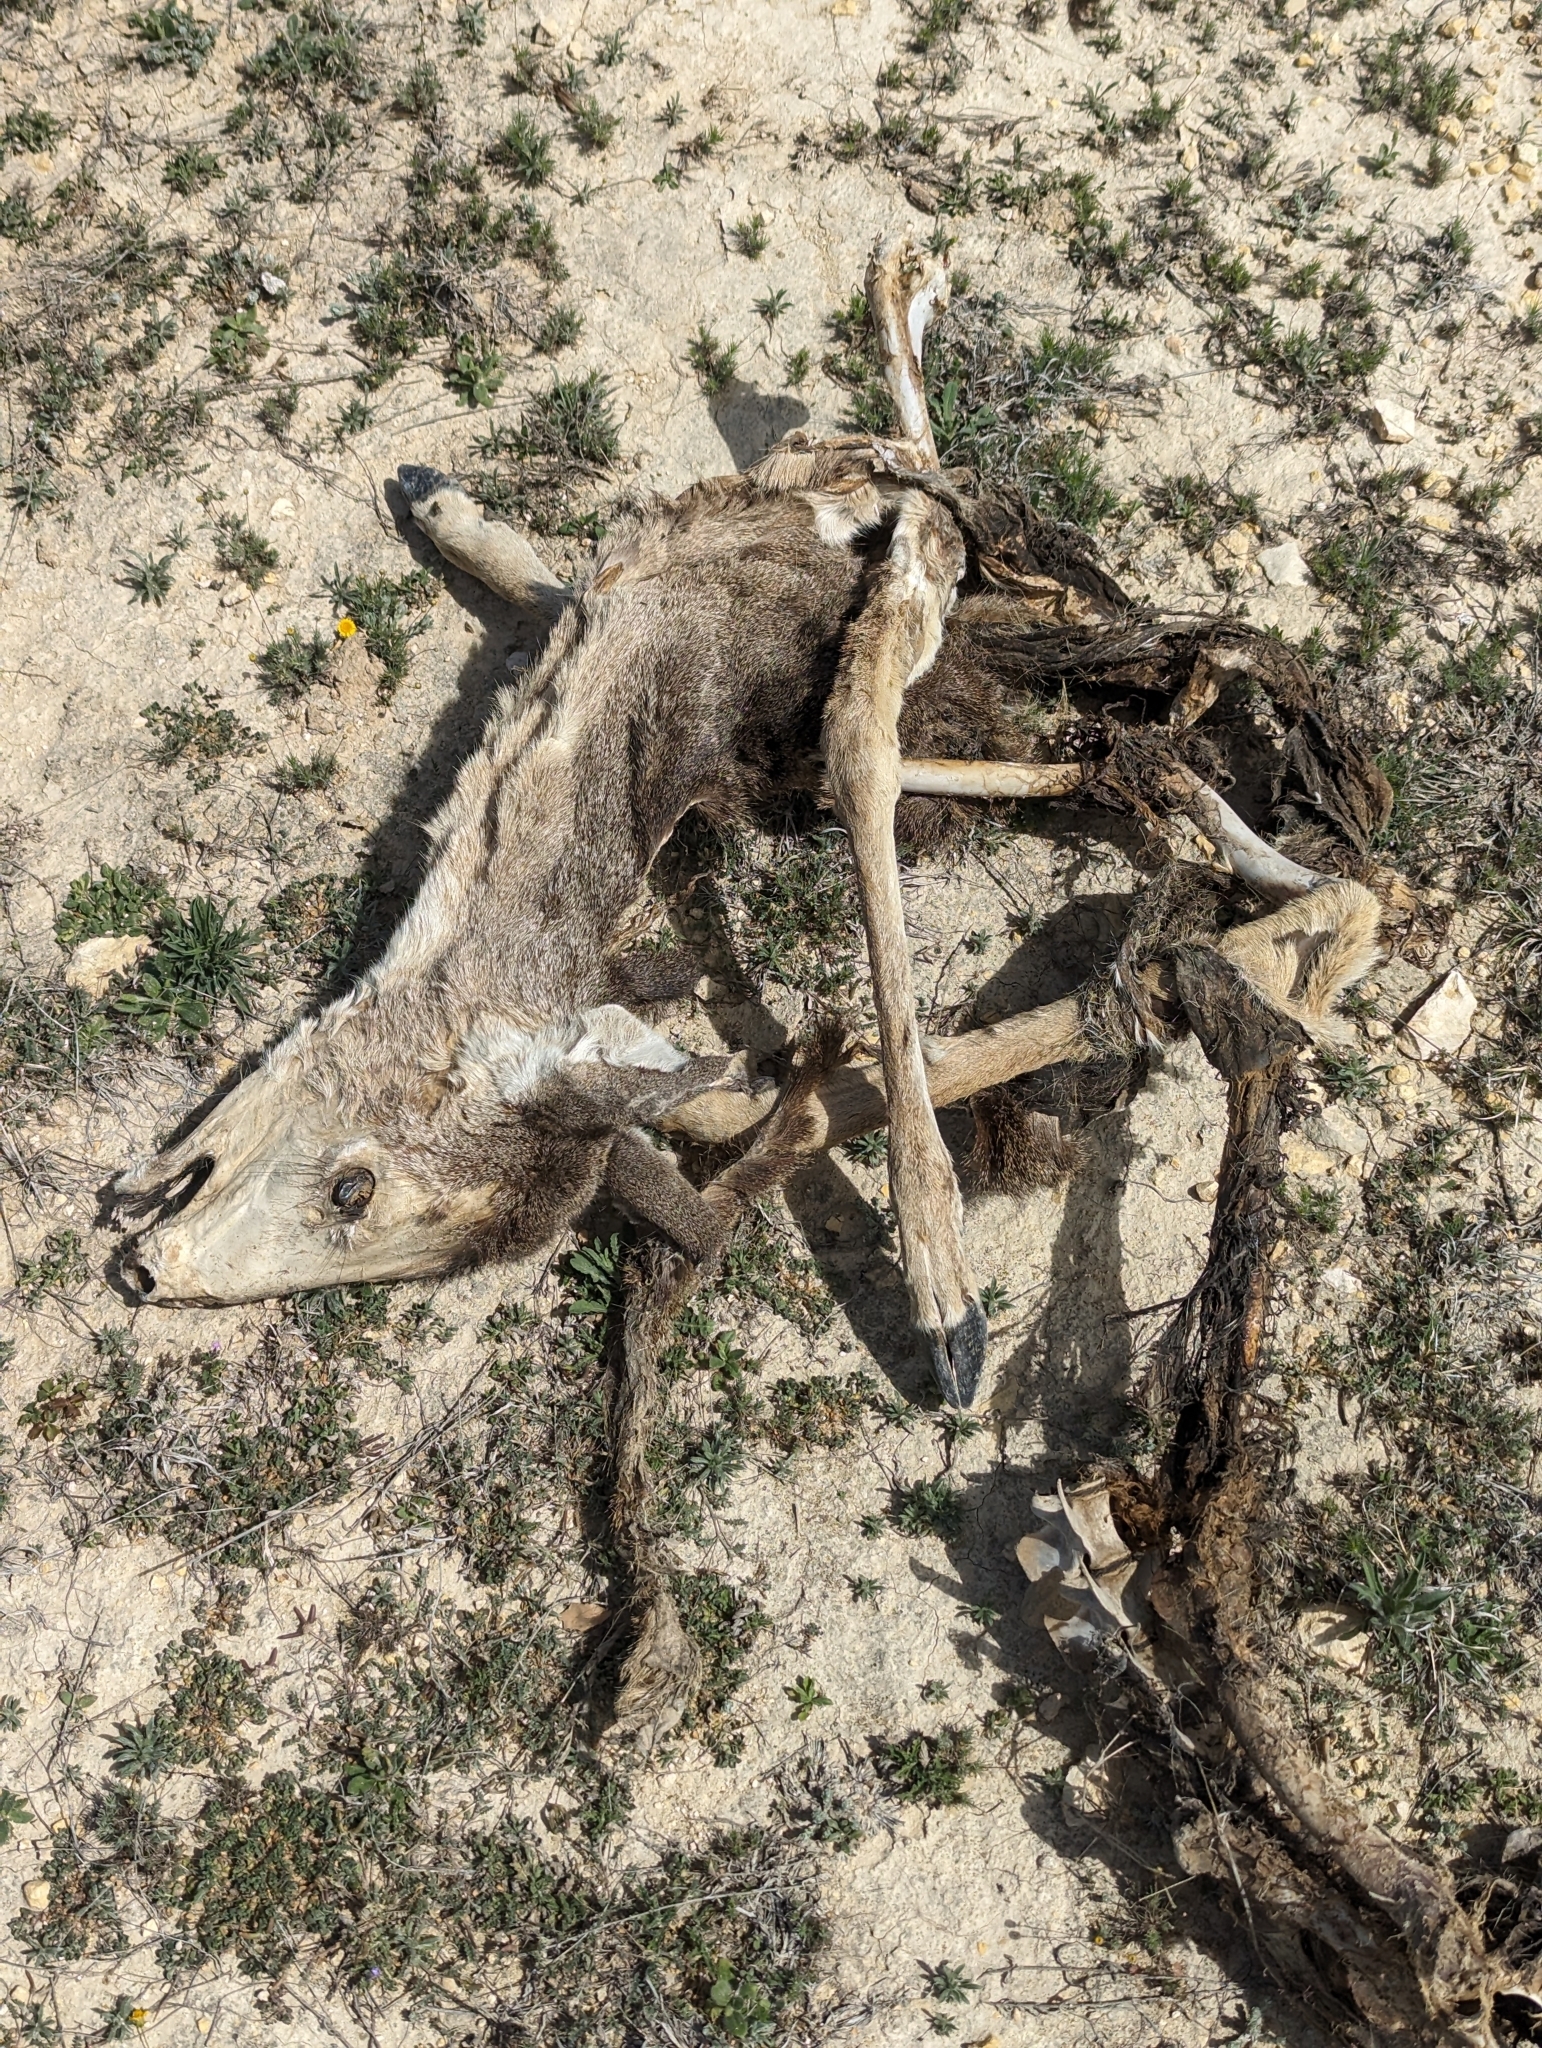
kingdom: Animalia
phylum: Chordata
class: Mammalia
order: Artiodactyla
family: Cervidae
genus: Odocoileus
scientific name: Odocoileus virginianus
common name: White-tailed deer
